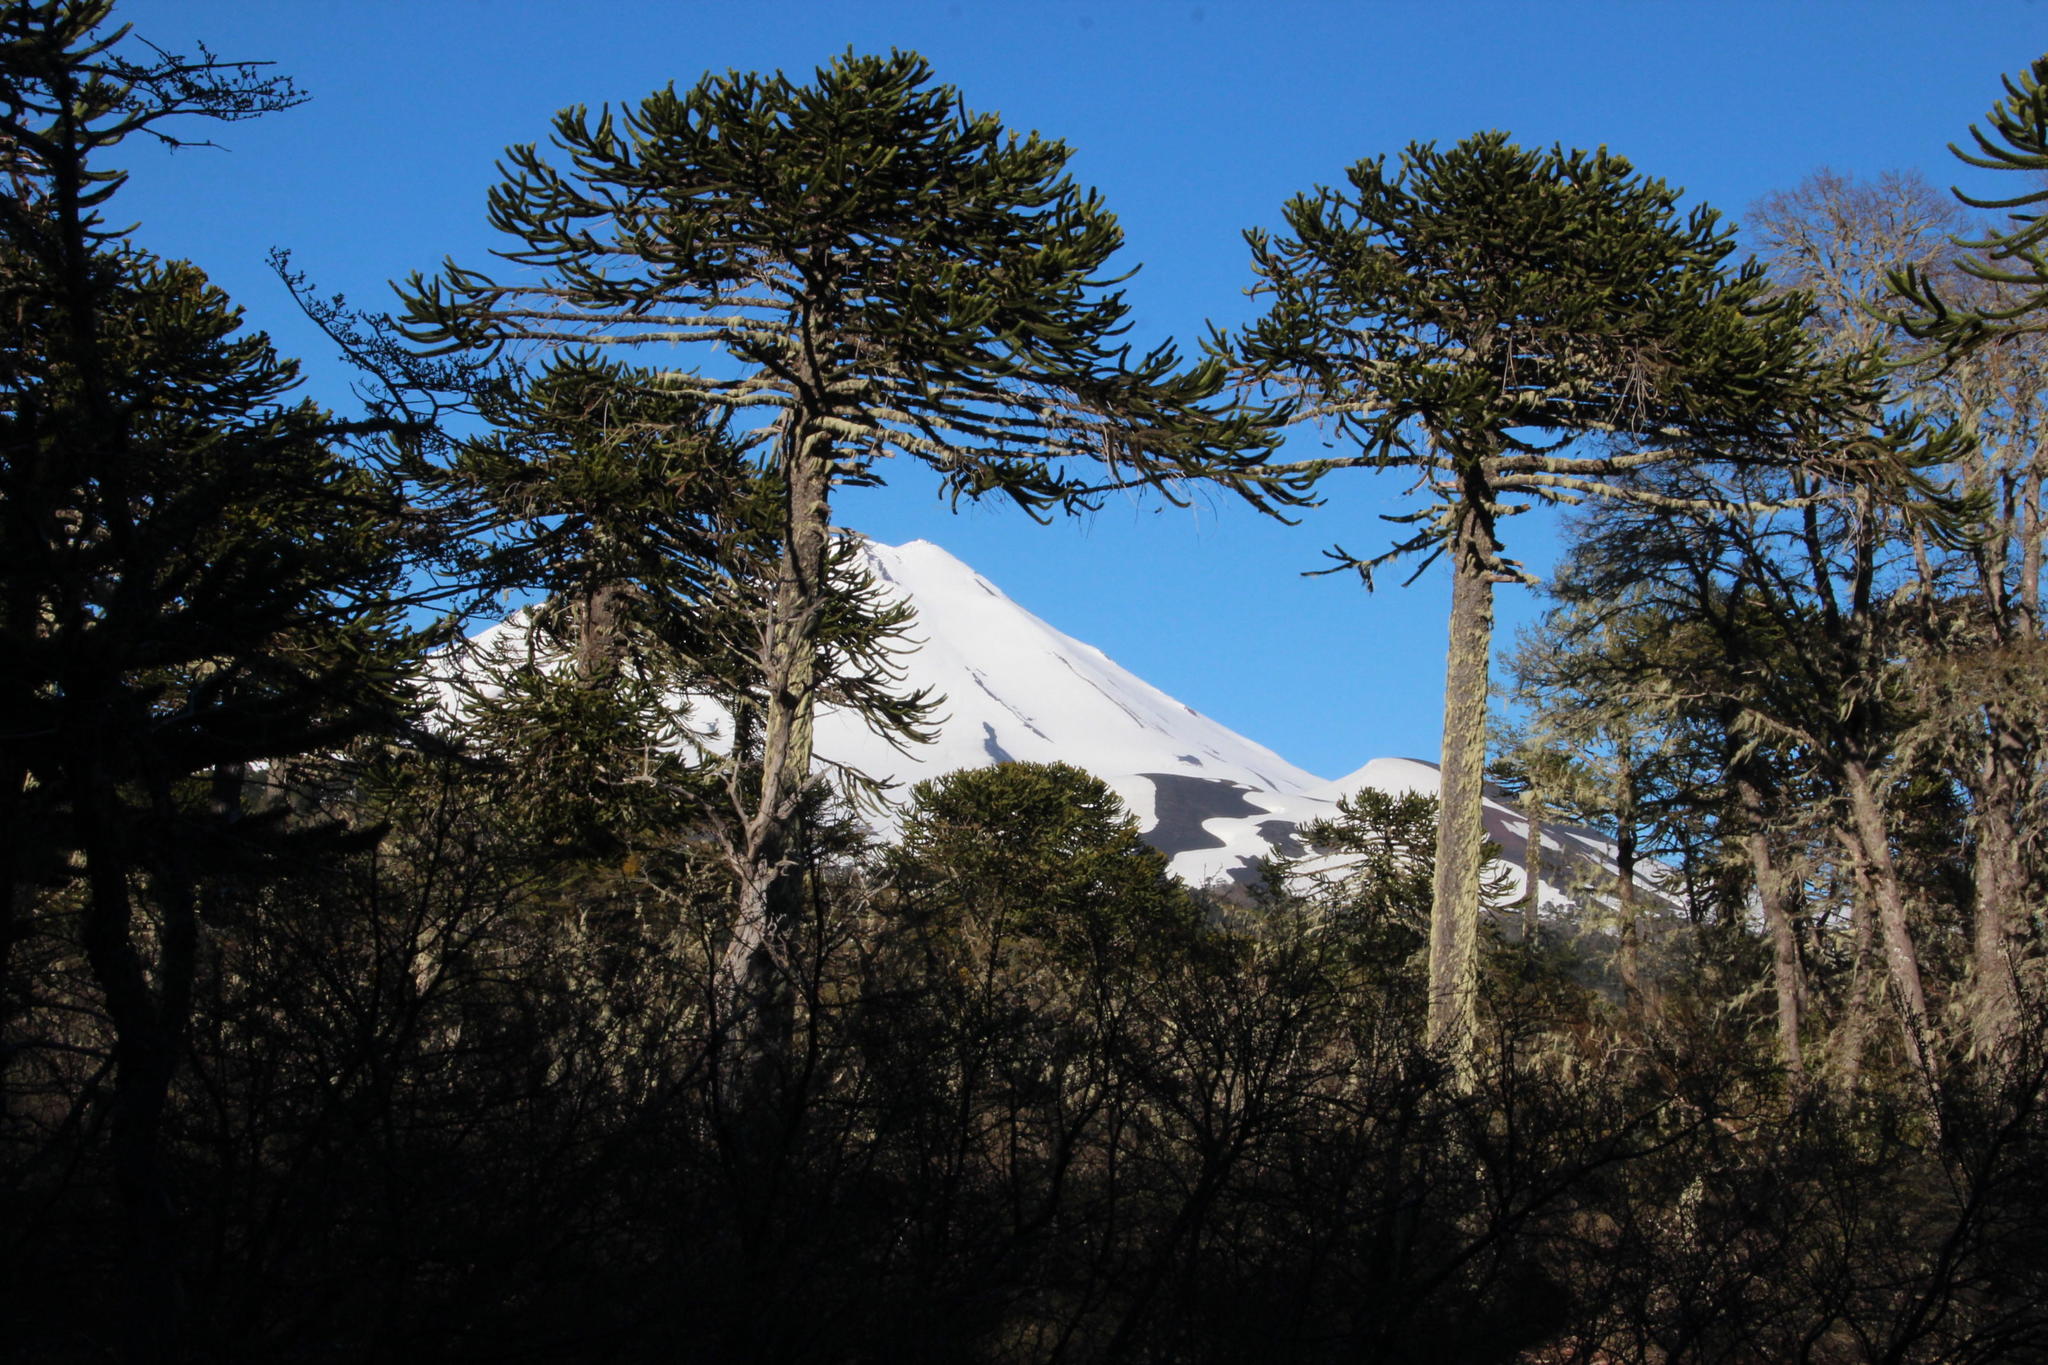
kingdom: Plantae
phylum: Tracheophyta
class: Pinopsida
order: Pinales
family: Araucariaceae
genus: Araucaria
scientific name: Araucaria araucana
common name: Monkey-puzzle
